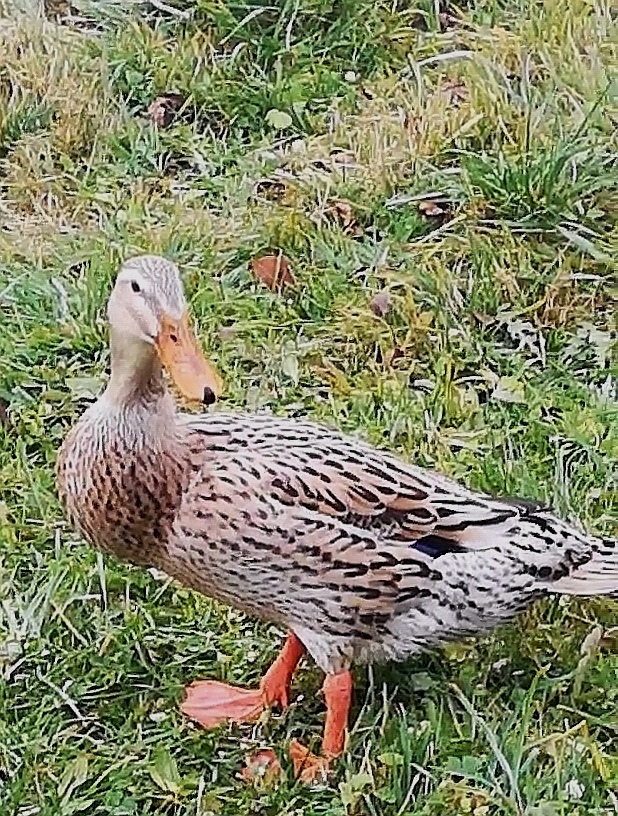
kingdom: Animalia
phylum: Chordata
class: Aves
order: Anseriformes
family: Anatidae
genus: Anas
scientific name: Anas platyrhynchos
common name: Mallard
